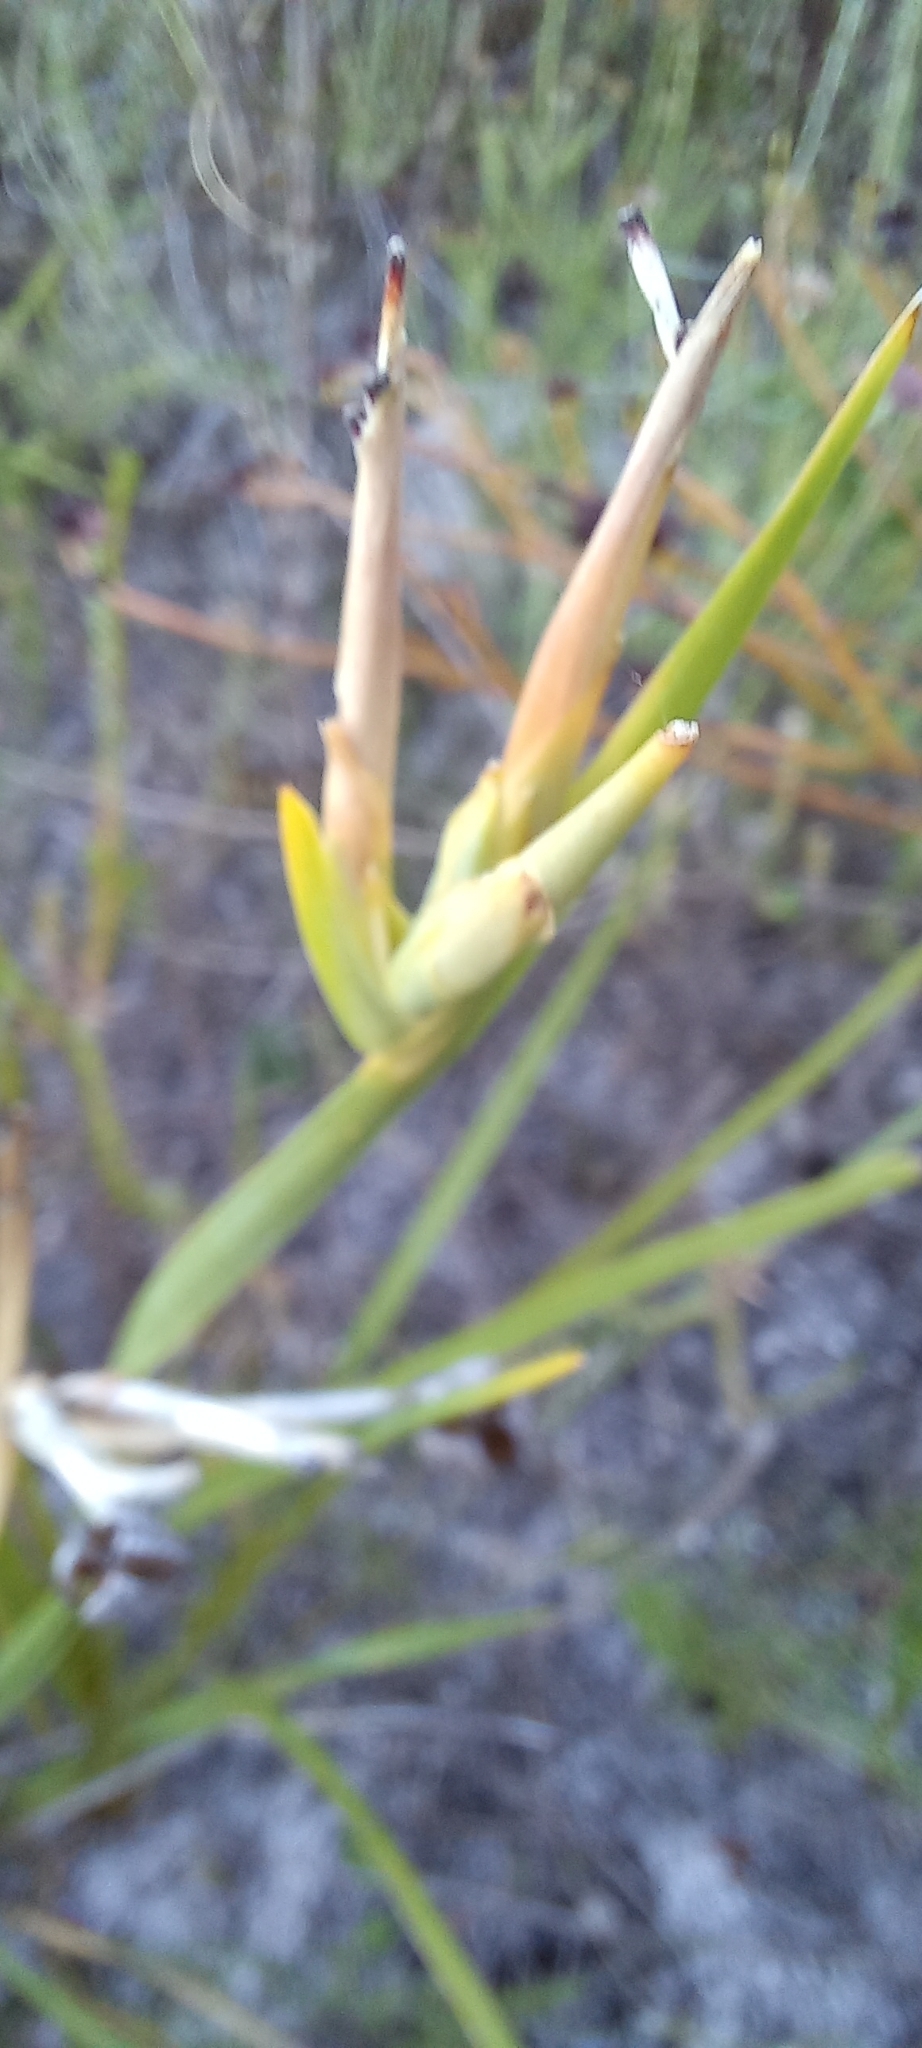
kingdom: Plantae
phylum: Tracheophyta
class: Liliopsida
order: Asparagales
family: Iridaceae
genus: Bobartia
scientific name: Bobartia gladiata
